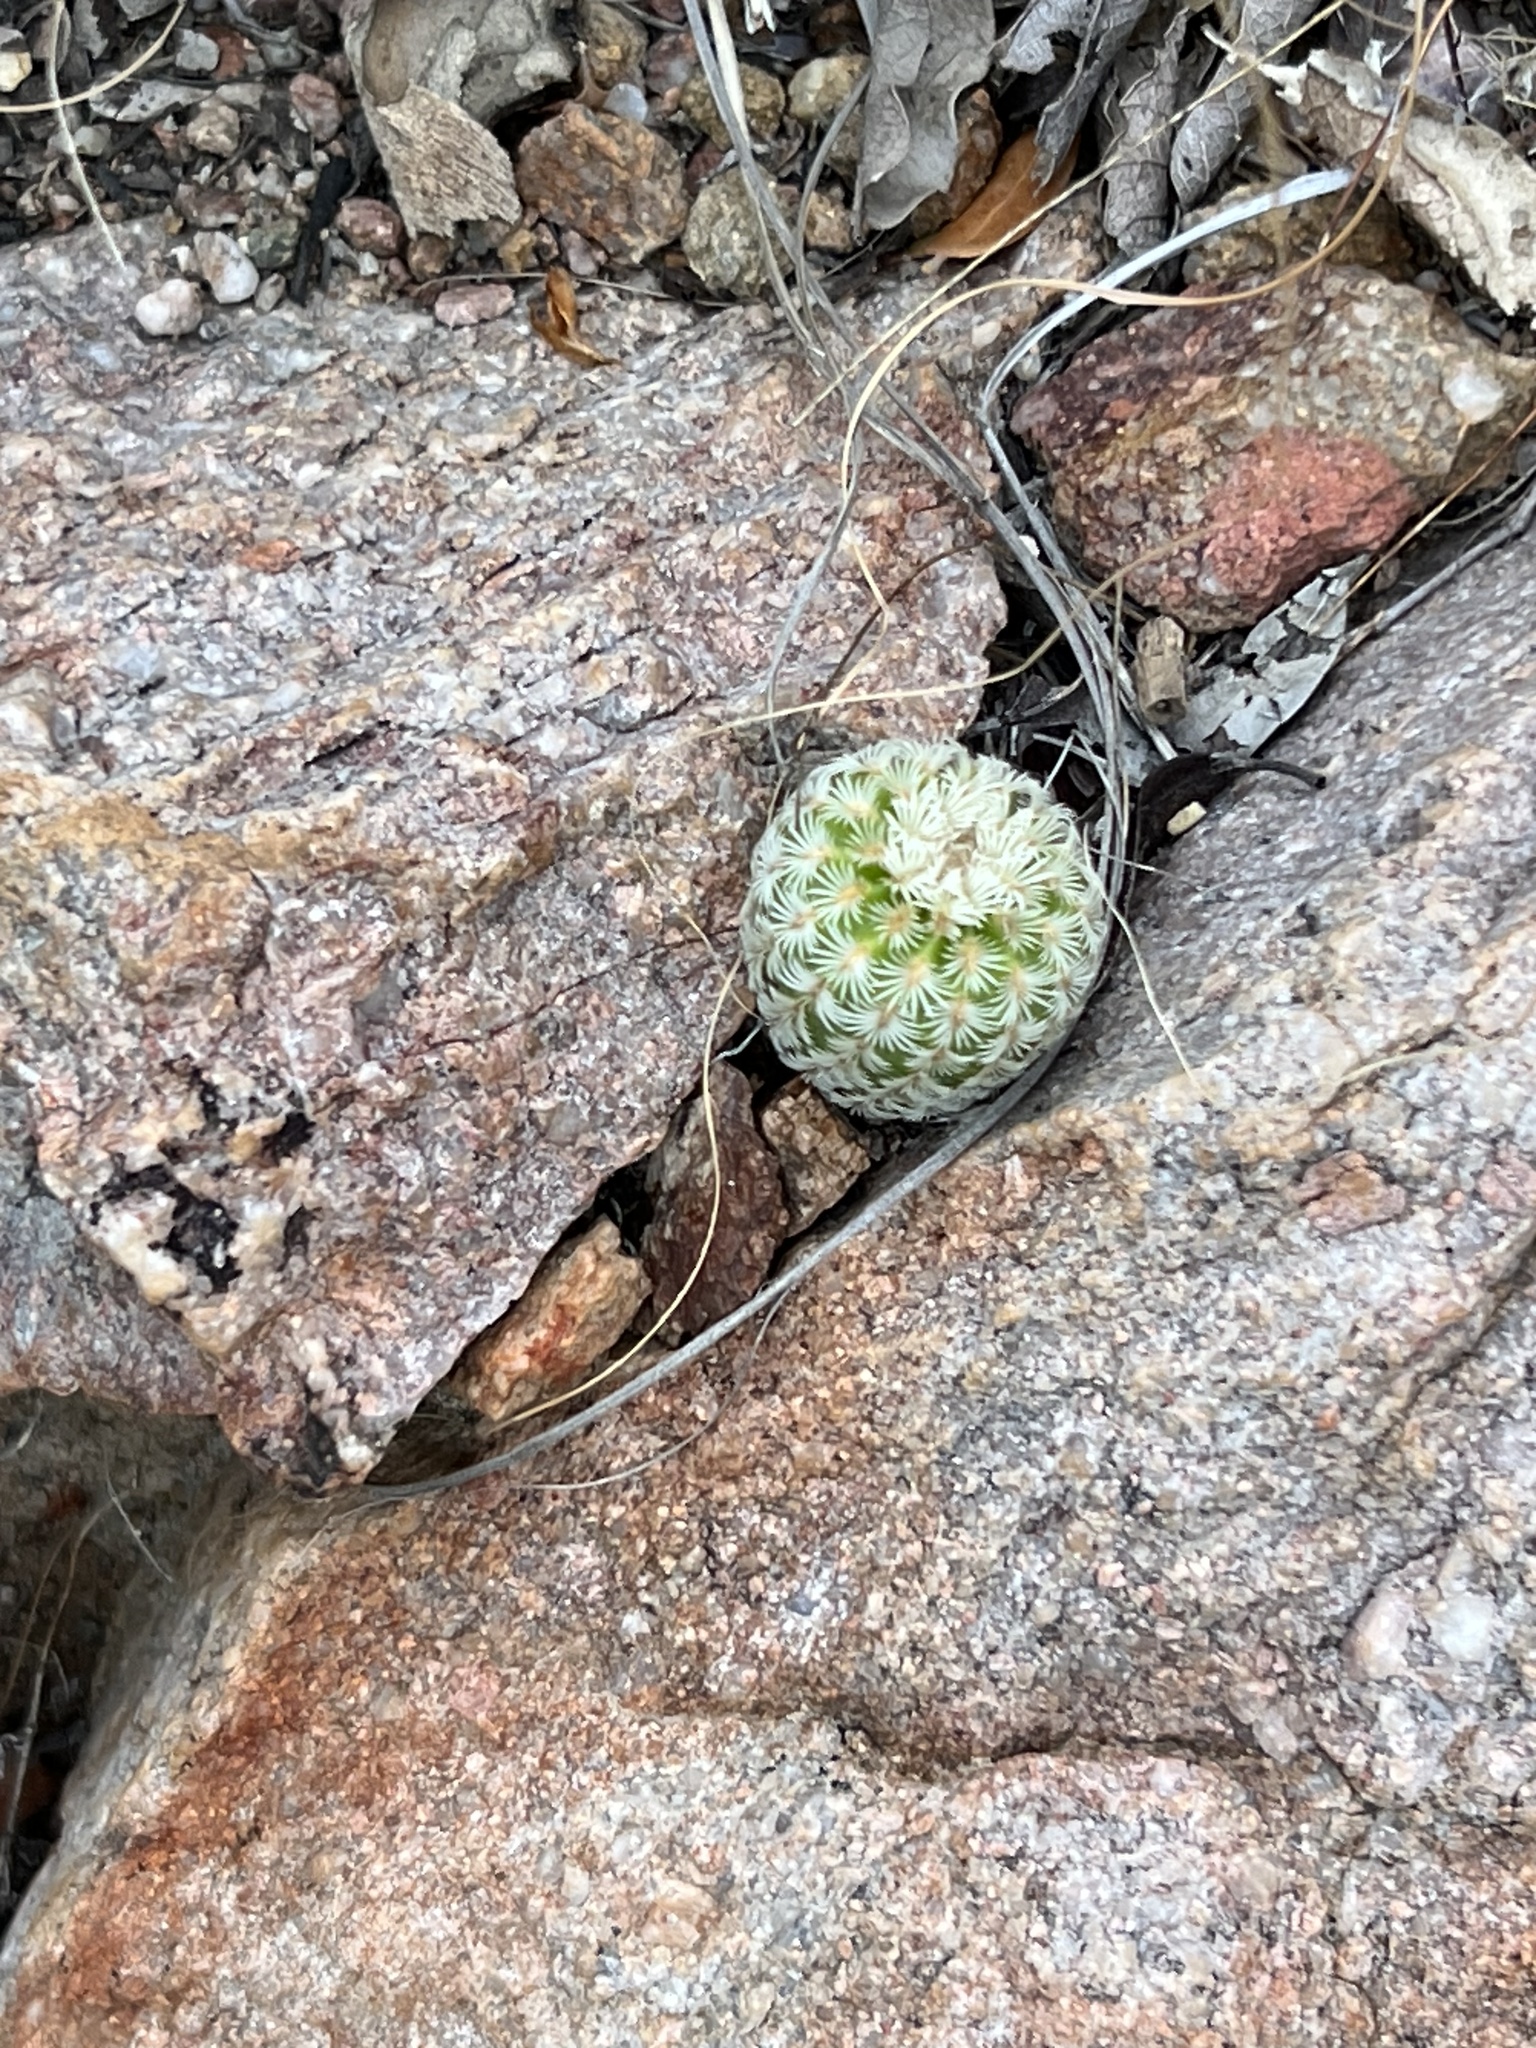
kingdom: Plantae
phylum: Tracheophyta
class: Magnoliopsida
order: Caryophyllales
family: Cactaceae
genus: Echinocereus
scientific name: Echinocereus rigidissimus
